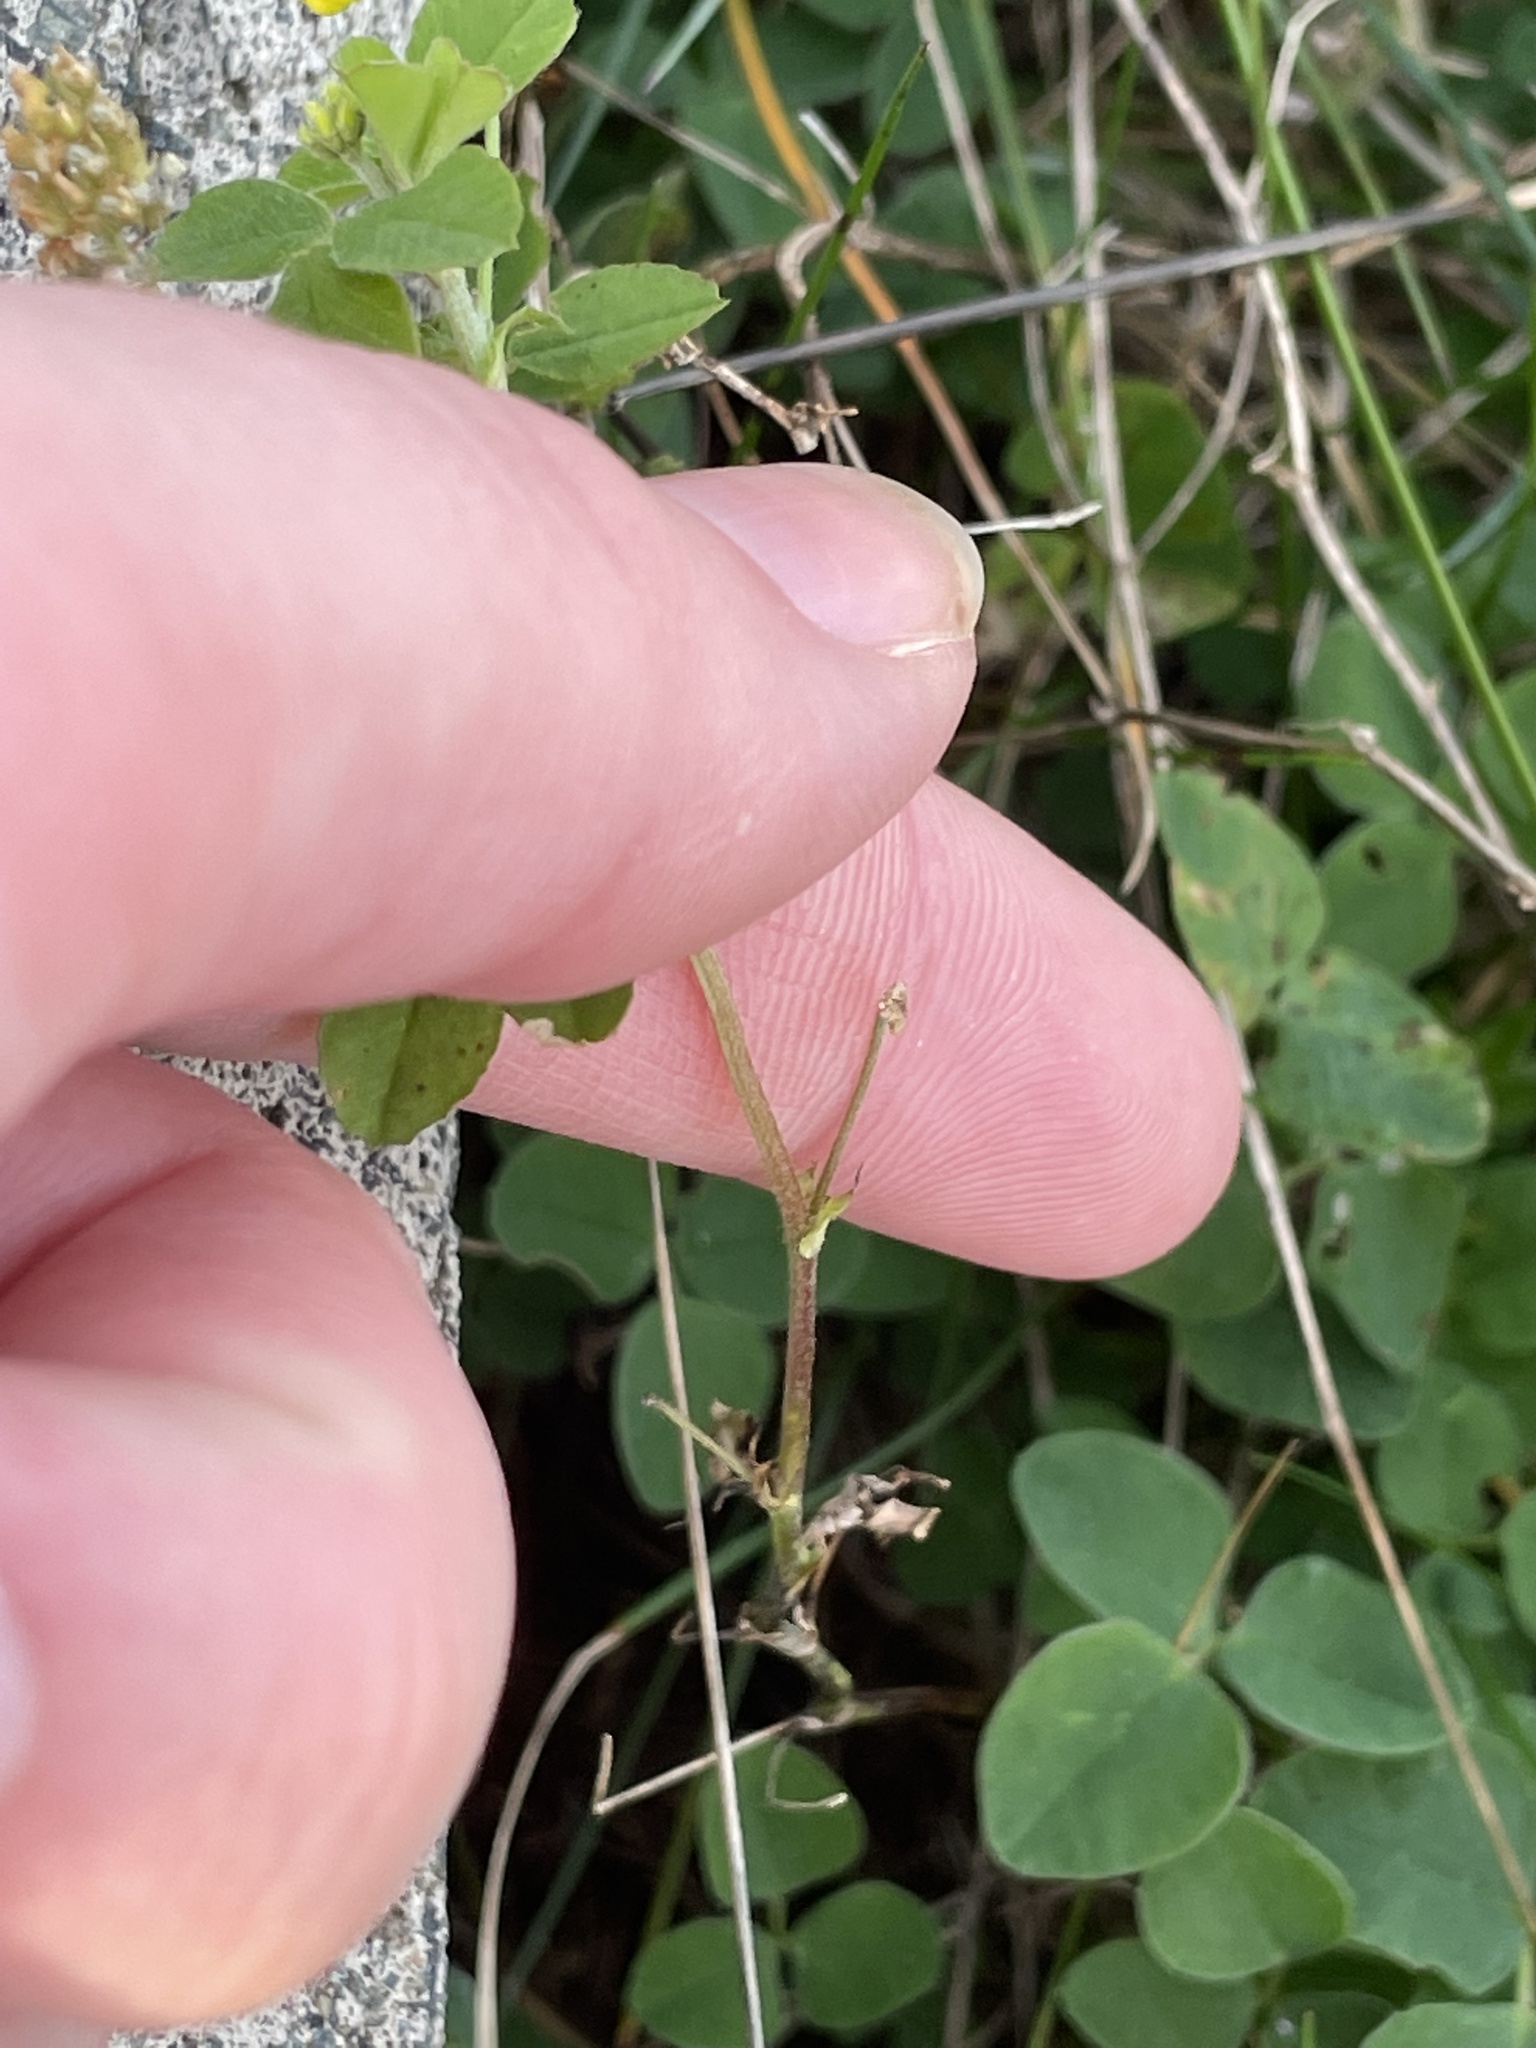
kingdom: Plantae
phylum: Tracheophyta
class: Magnoliopsida
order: Fabales
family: Fabaceae
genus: Medicago
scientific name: Medicago lupulina
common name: Black medick
